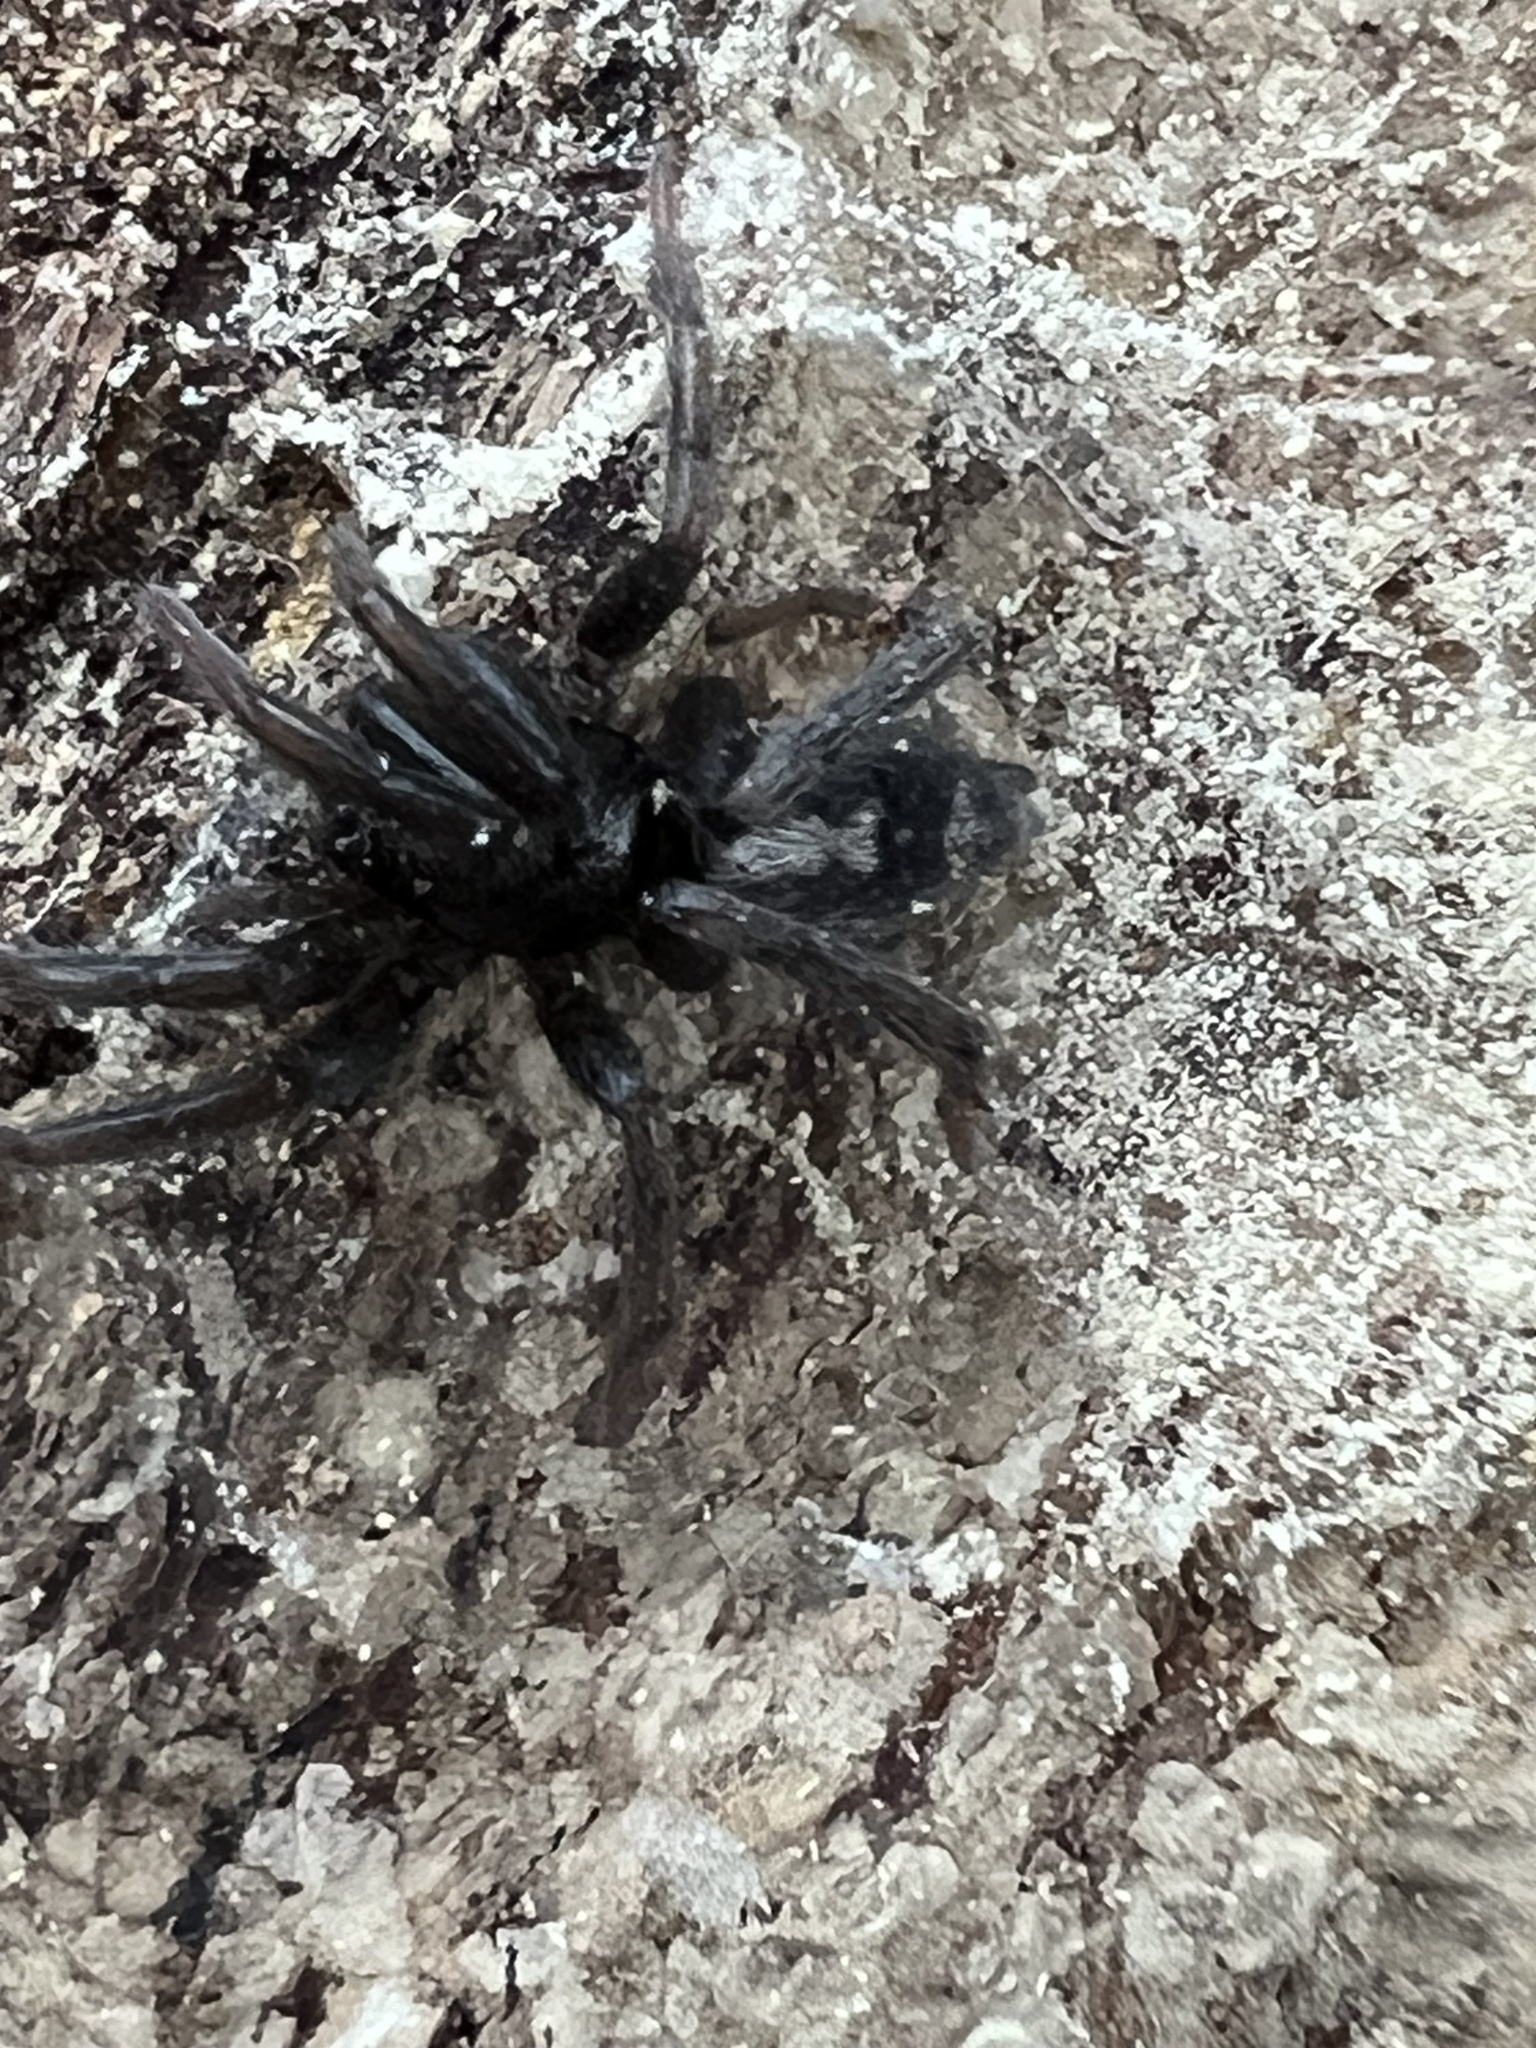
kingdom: Animalia
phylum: Arthropoda
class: Arachnida
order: Araneae
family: Gnaphosidae
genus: Herpyllus
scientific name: Herpyllus ecclesiasticus
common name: Eastern parson spider
